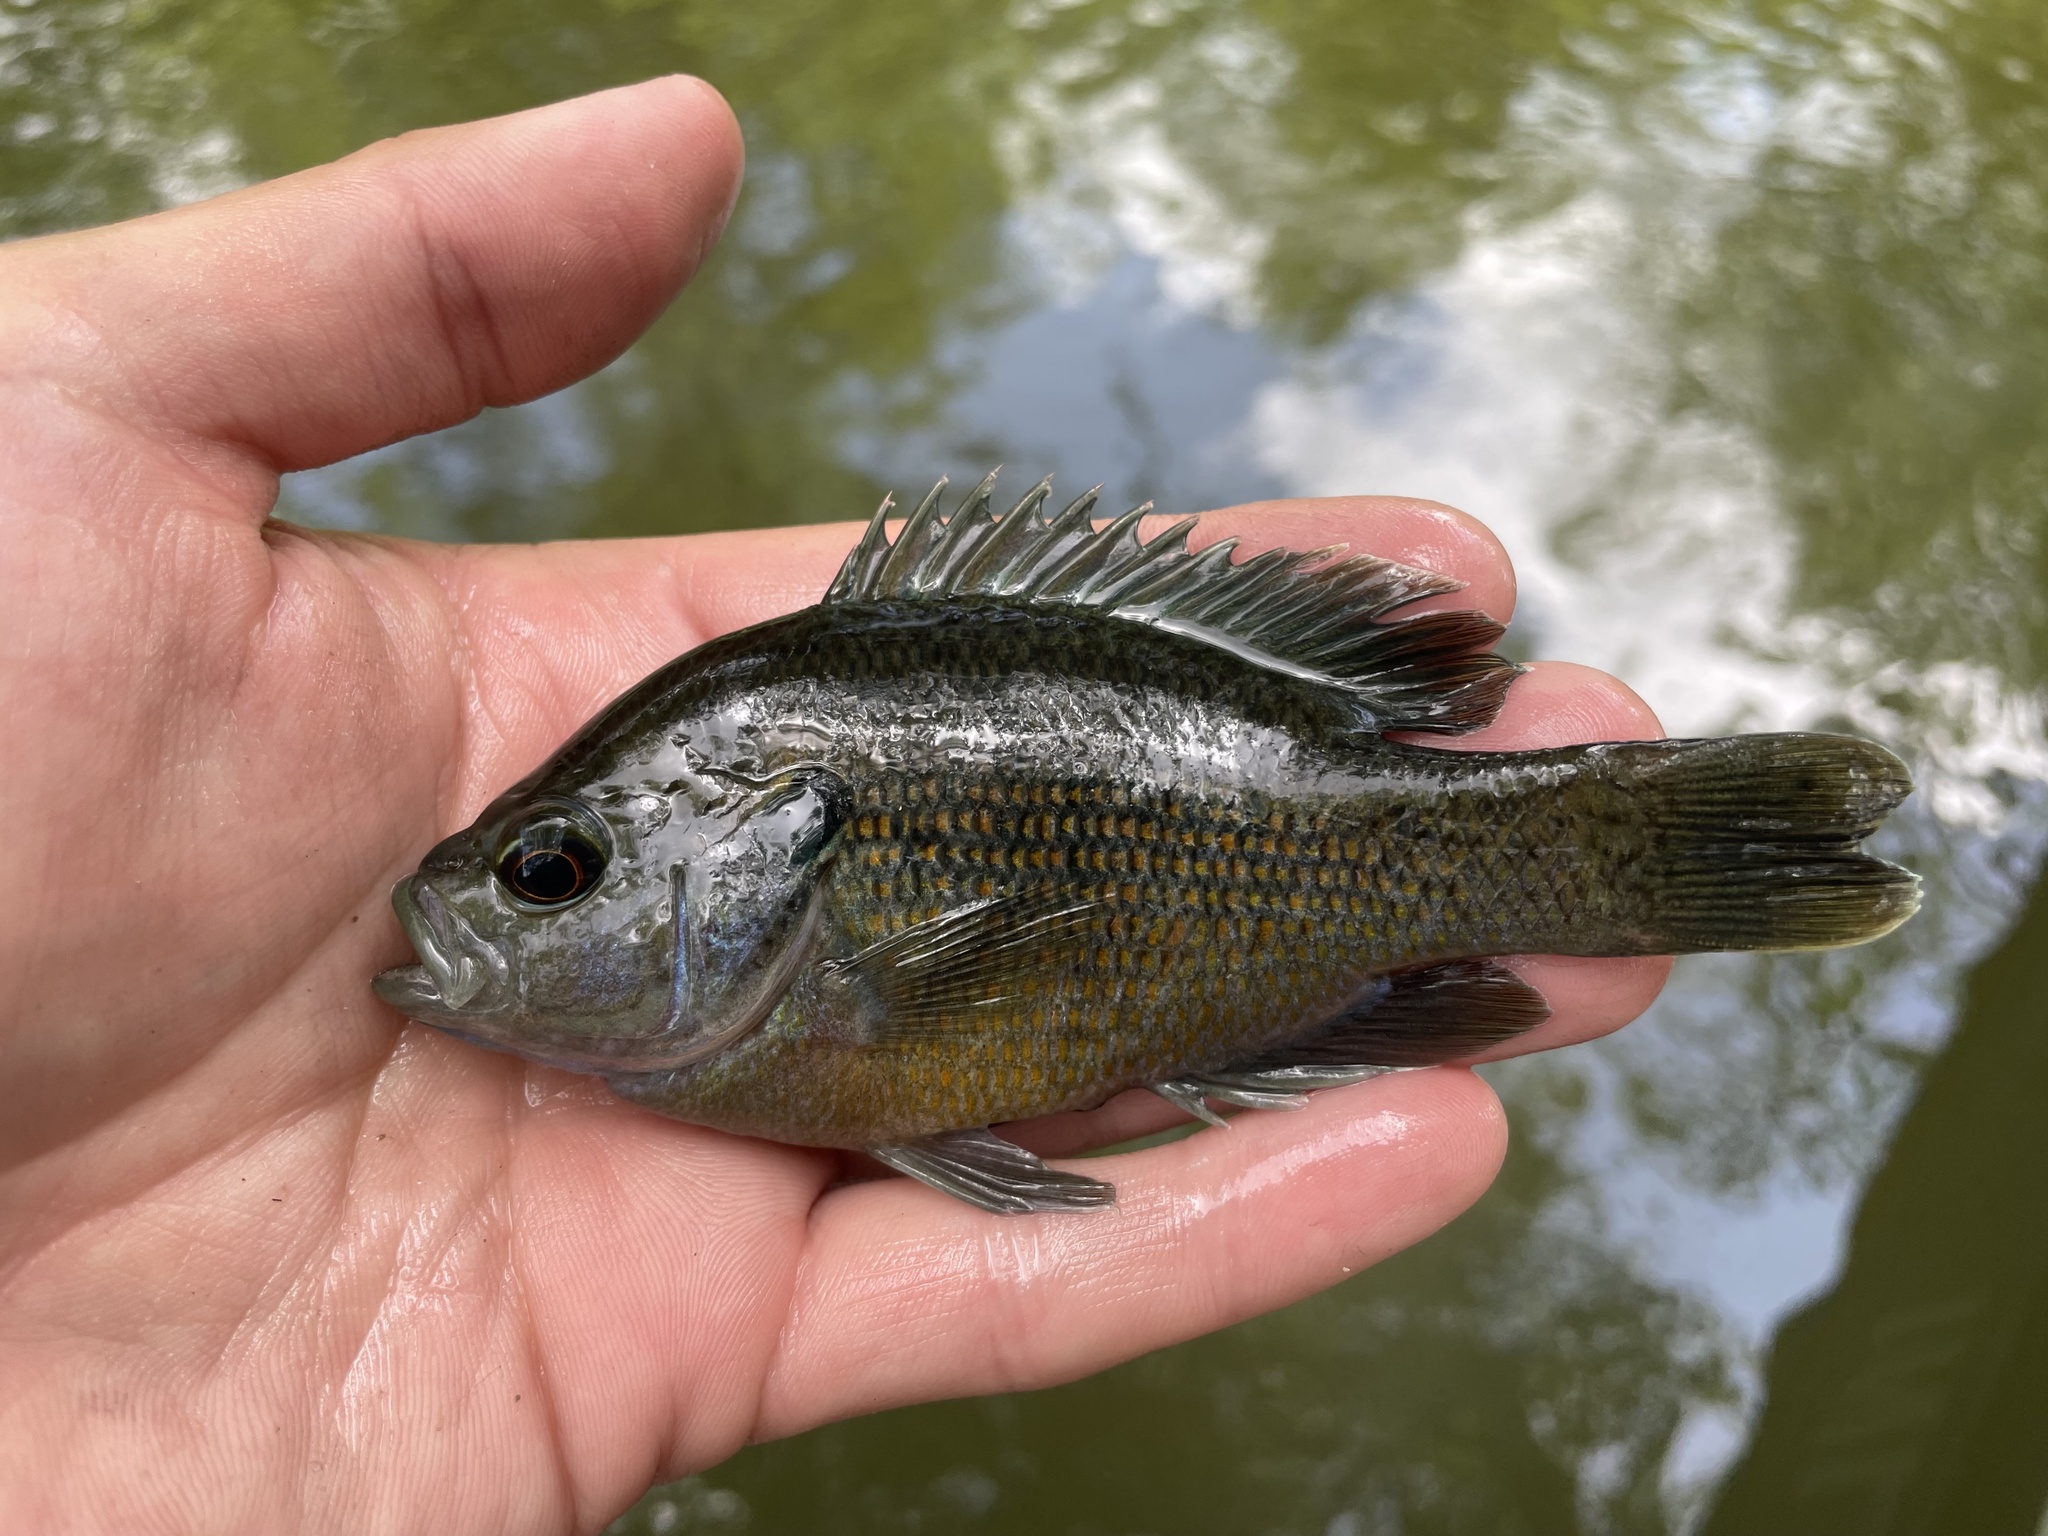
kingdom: Animalia
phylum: Chordata
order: Perciformes
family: Centrarchidae
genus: Lepomis
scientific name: Lepomis miniatus
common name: Redspotted sunfish
